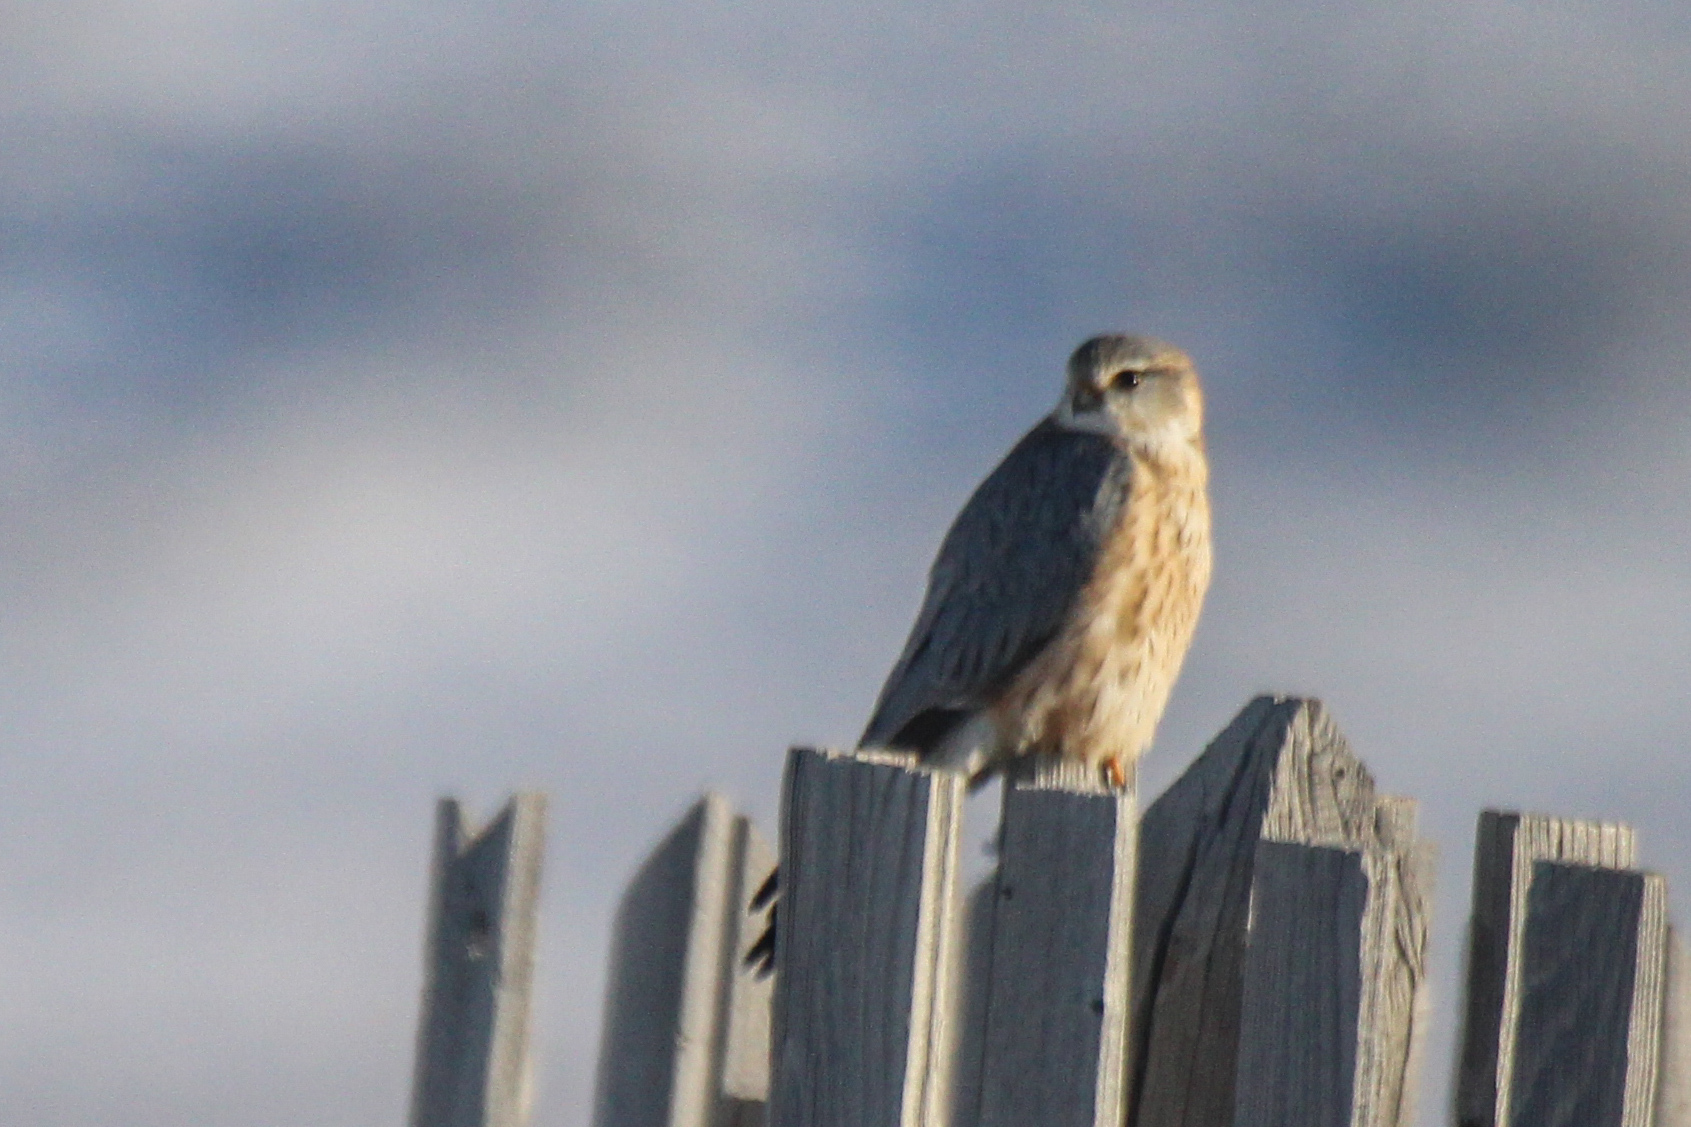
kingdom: Animalia
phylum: Chordata
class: Aves
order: Falconiformes
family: Falconidae
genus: Falco
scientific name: Falco columbarius
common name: Merlin
